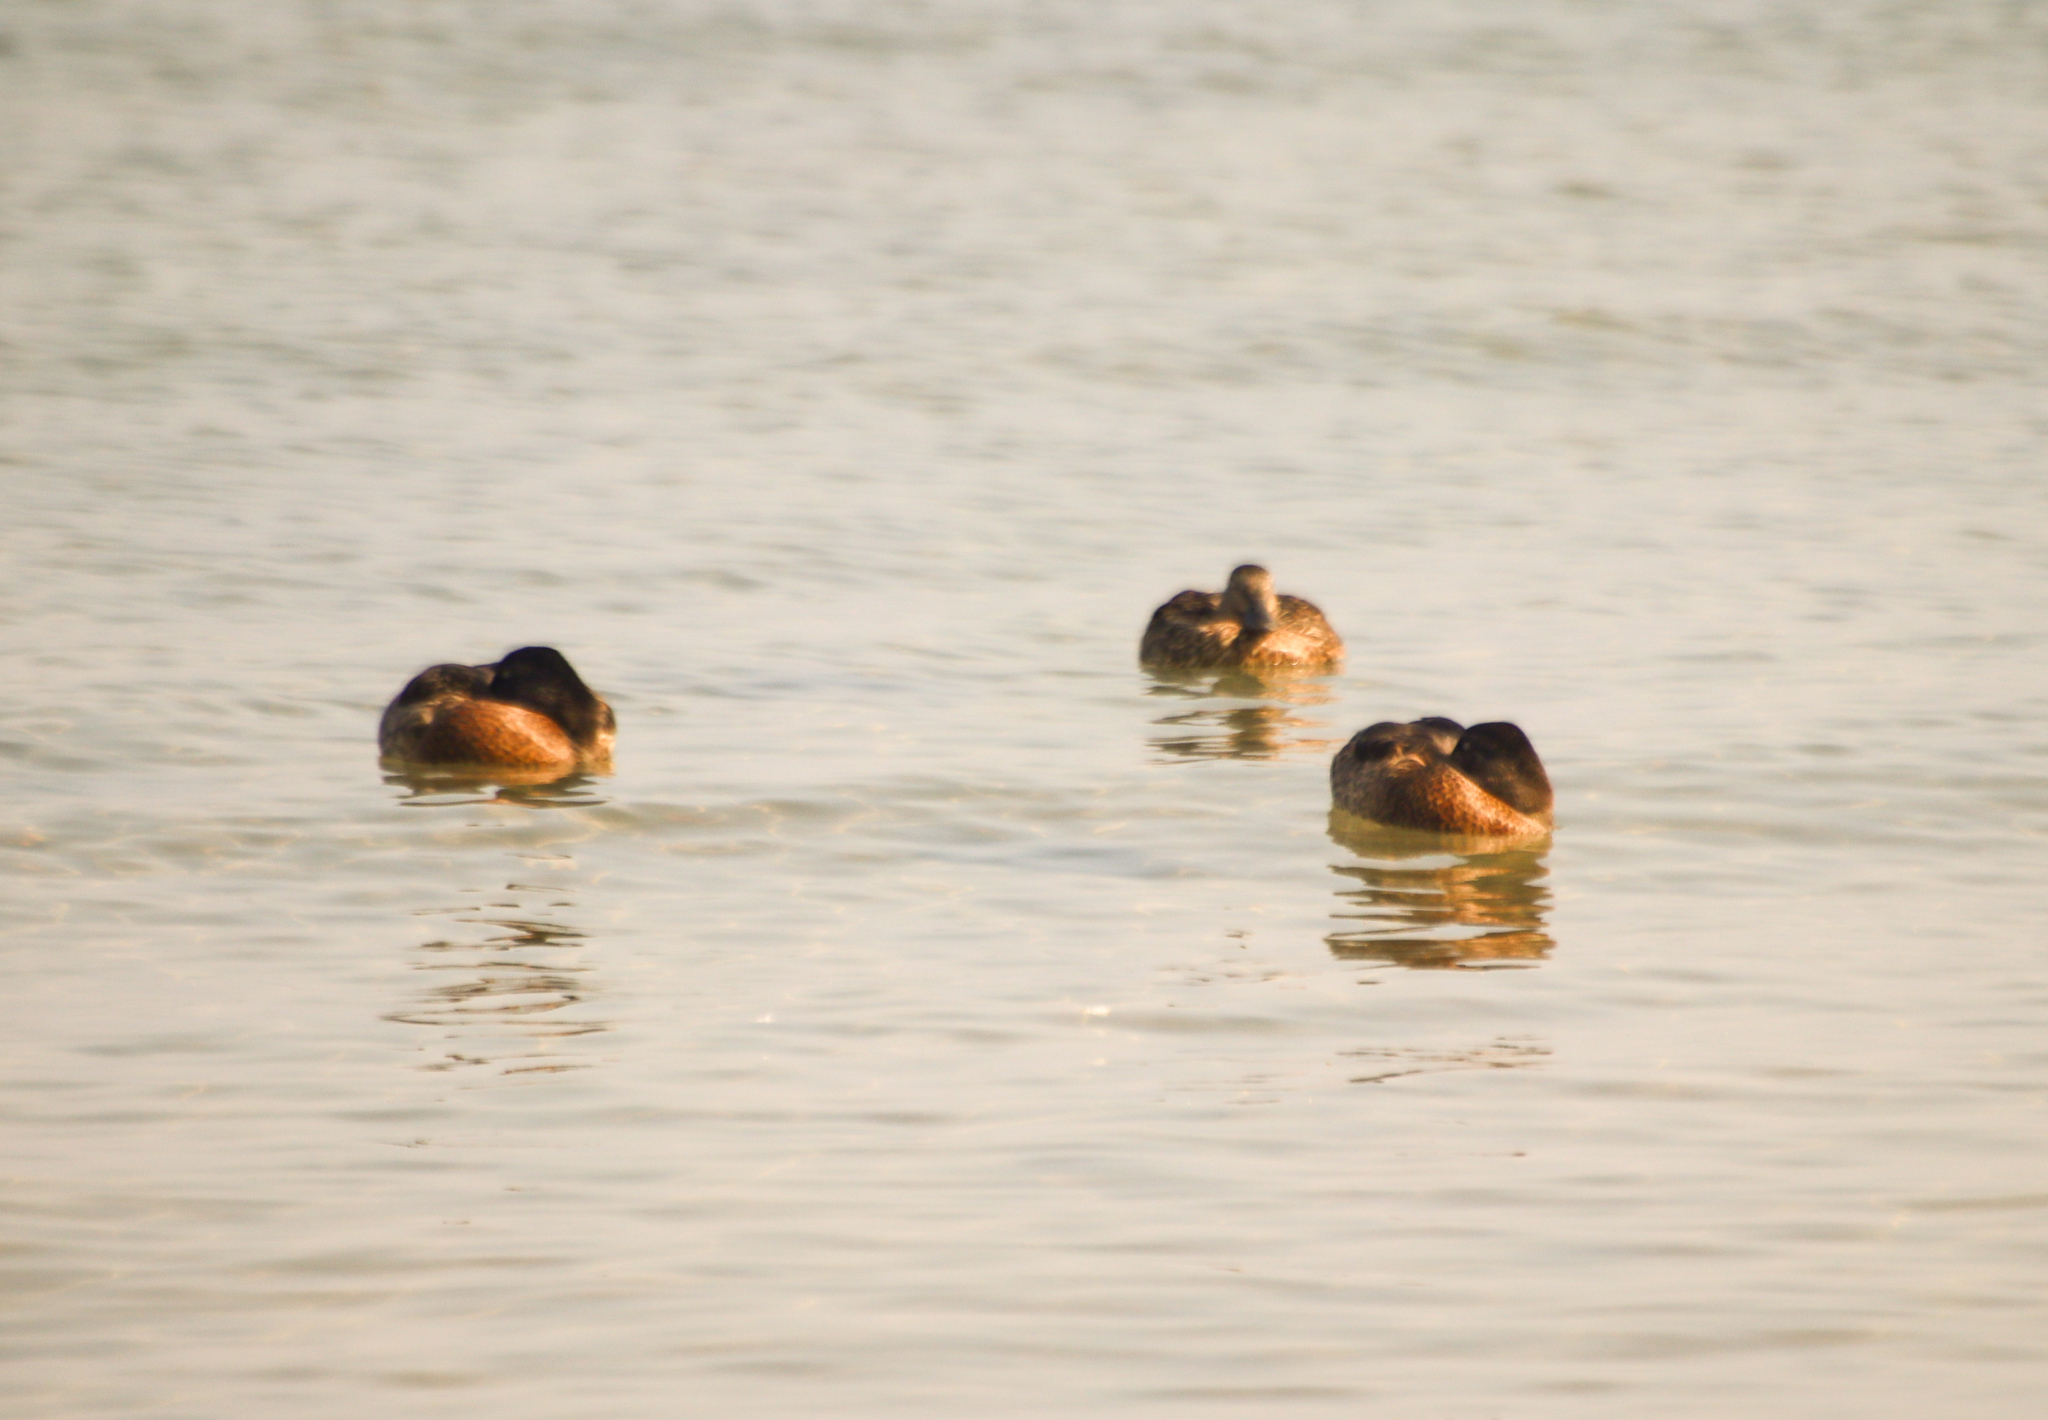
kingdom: Animalia
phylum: Chordata
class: Aves
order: Anseriformes
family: Anatidae
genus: Anas
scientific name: Anas platyrhynchos
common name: Mallard
